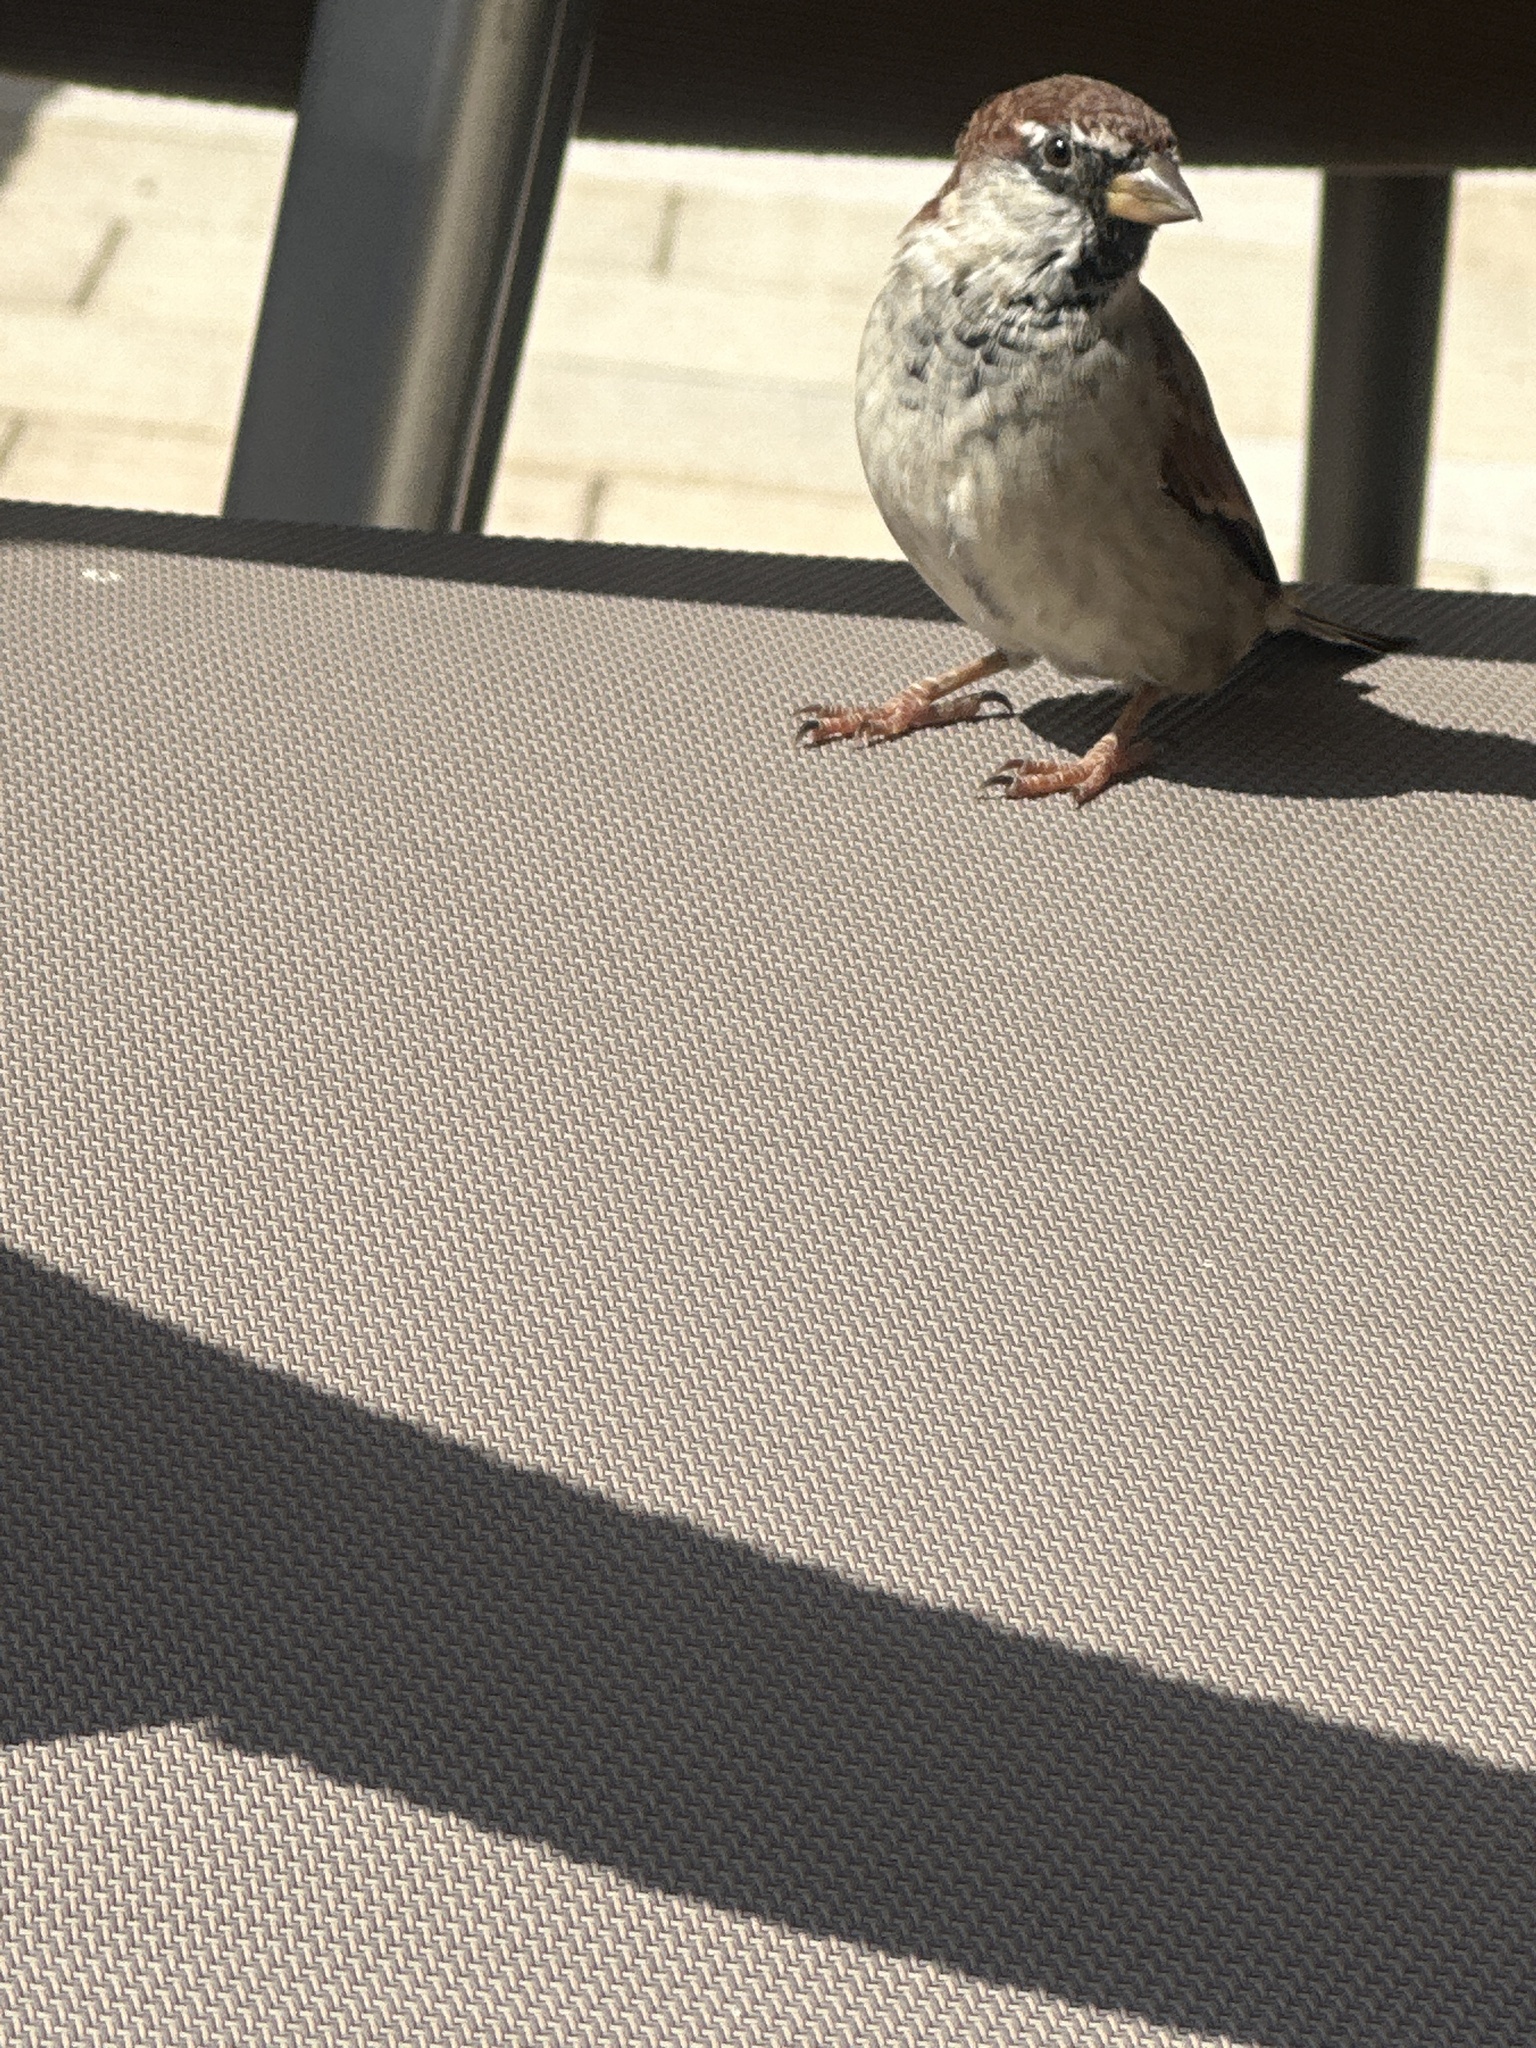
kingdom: Animalia
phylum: Chordata
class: Aves
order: Passeriformes
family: Passeridae
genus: Passer
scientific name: Passer italiae
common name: Italian sparrow
